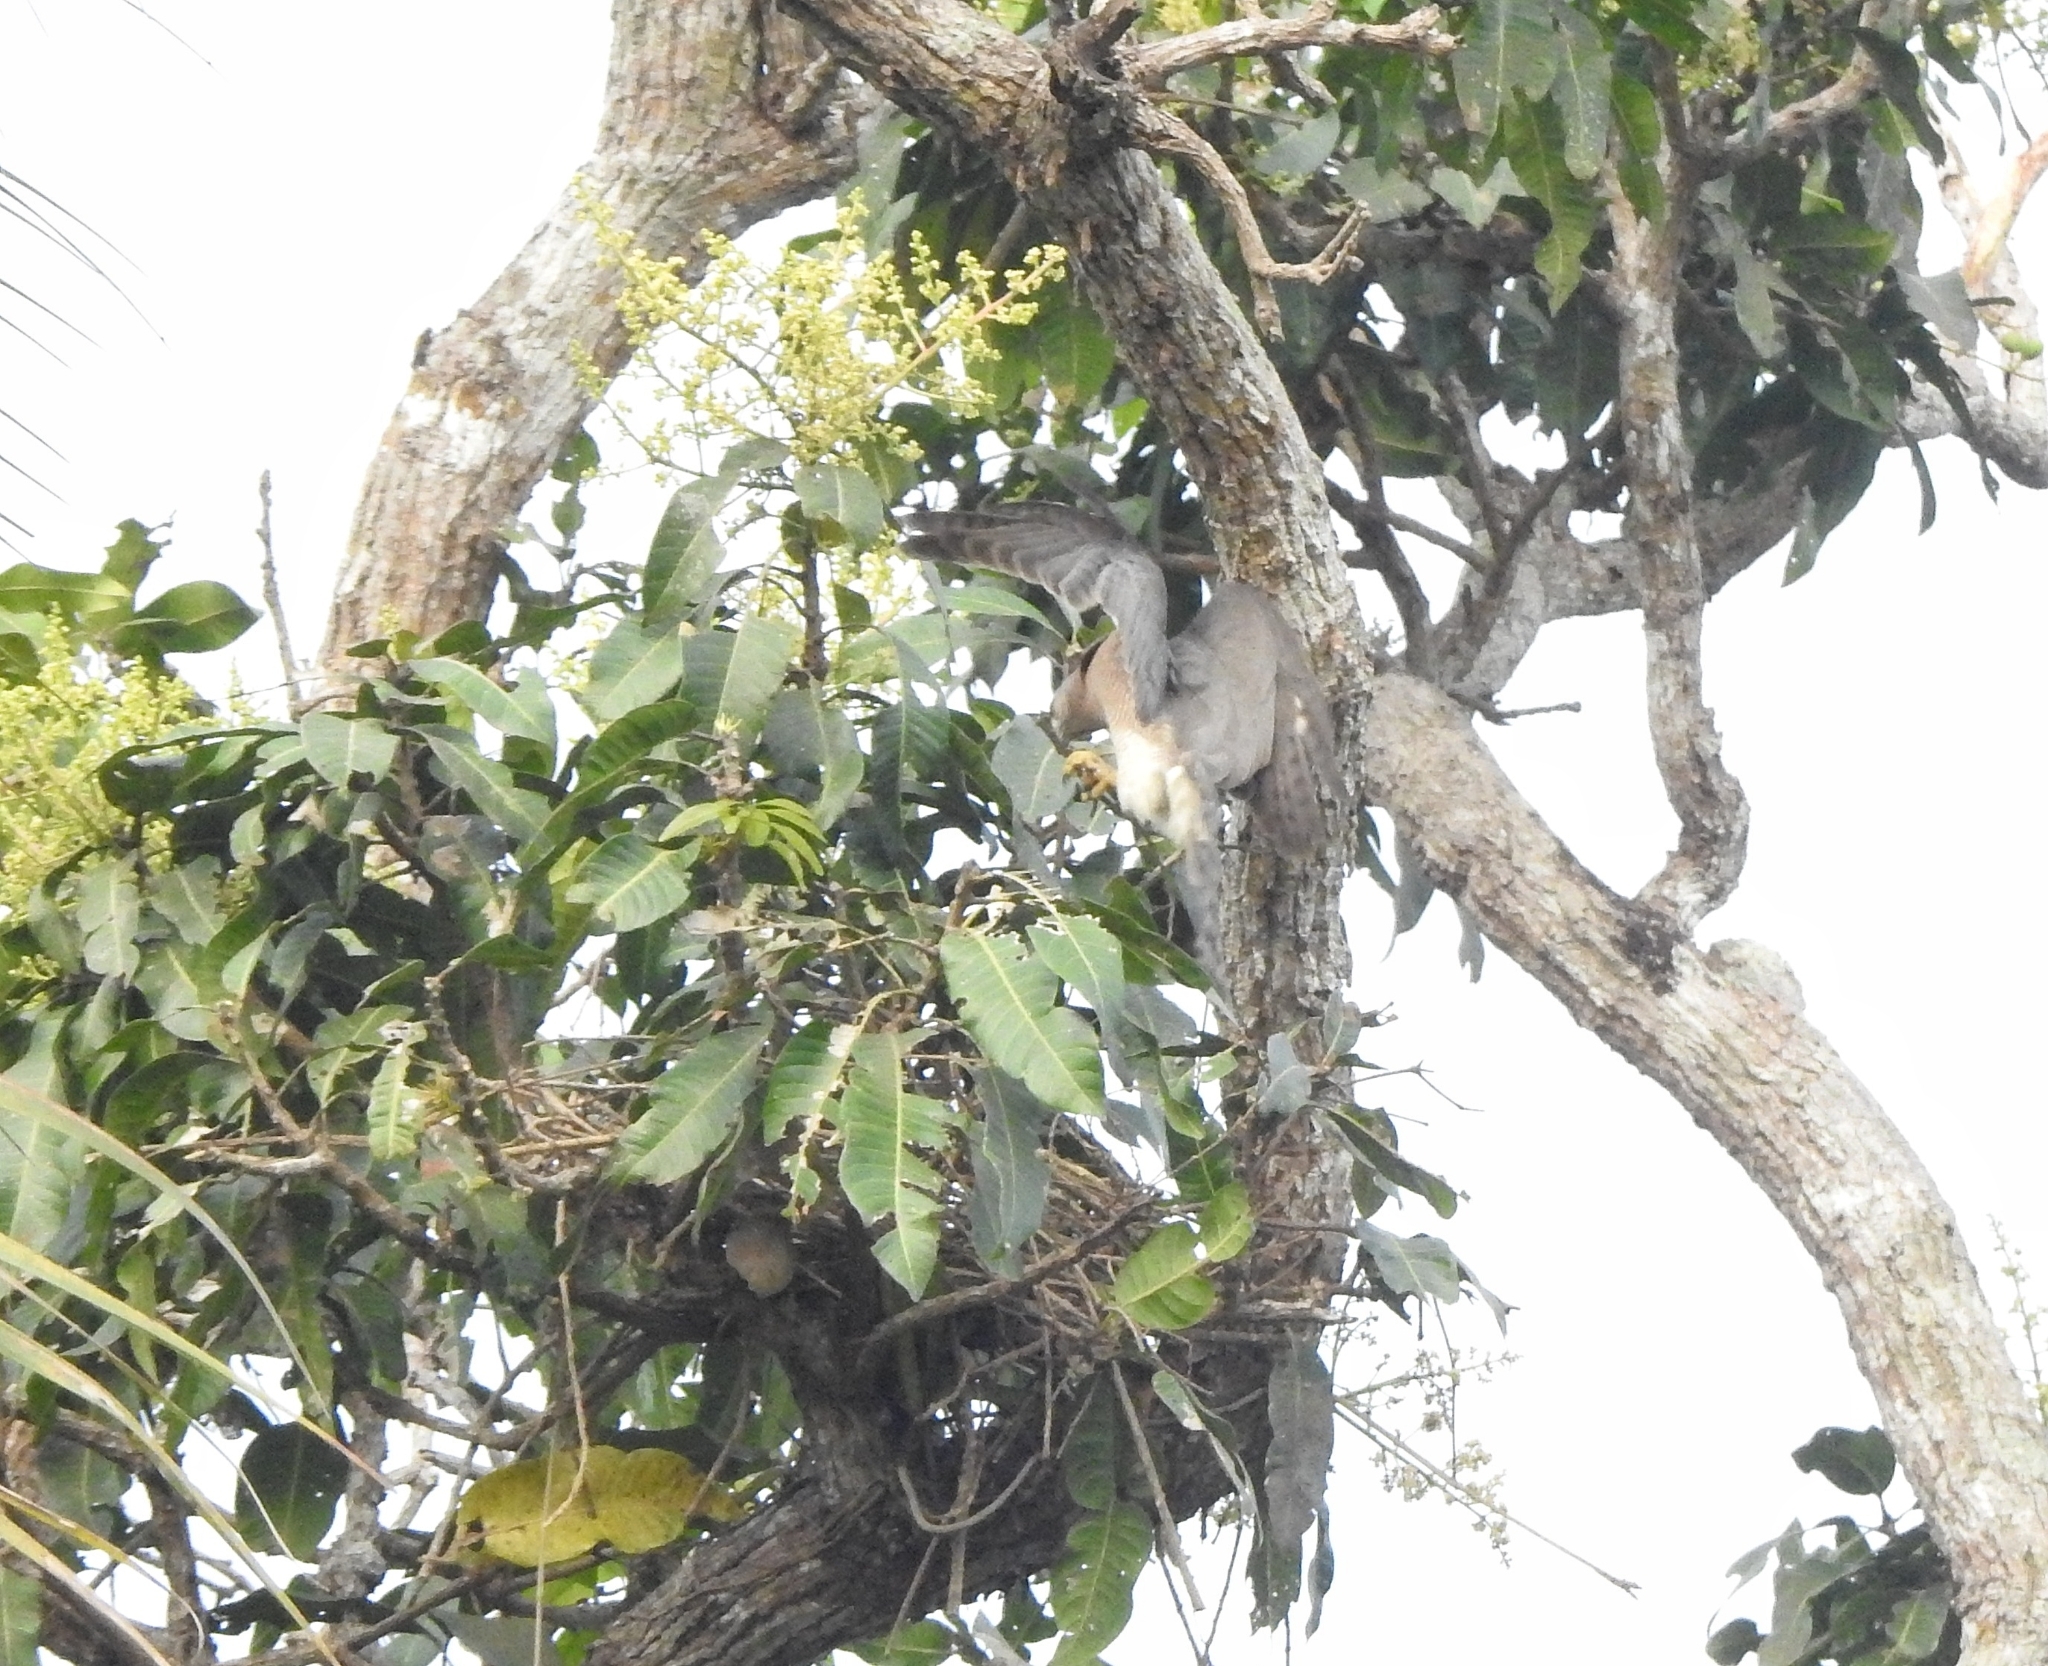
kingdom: Animalia
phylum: Chordata
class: Aves
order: Accipitriformes
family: Accipitridae
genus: Accipiter
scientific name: Accipiter badius
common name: Shikra
